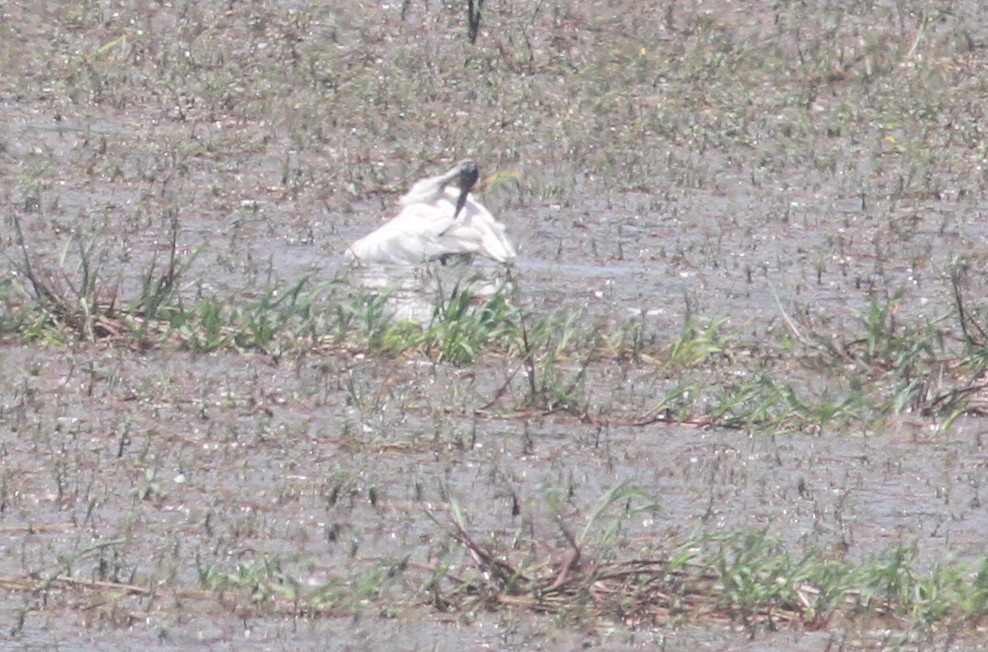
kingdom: Animalia
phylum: Chordata
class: Aves
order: Pelecaniformes
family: Threskiornithidae
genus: Threskiornis
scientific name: Threskiornis melanocephalus
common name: Black-headed ibis
